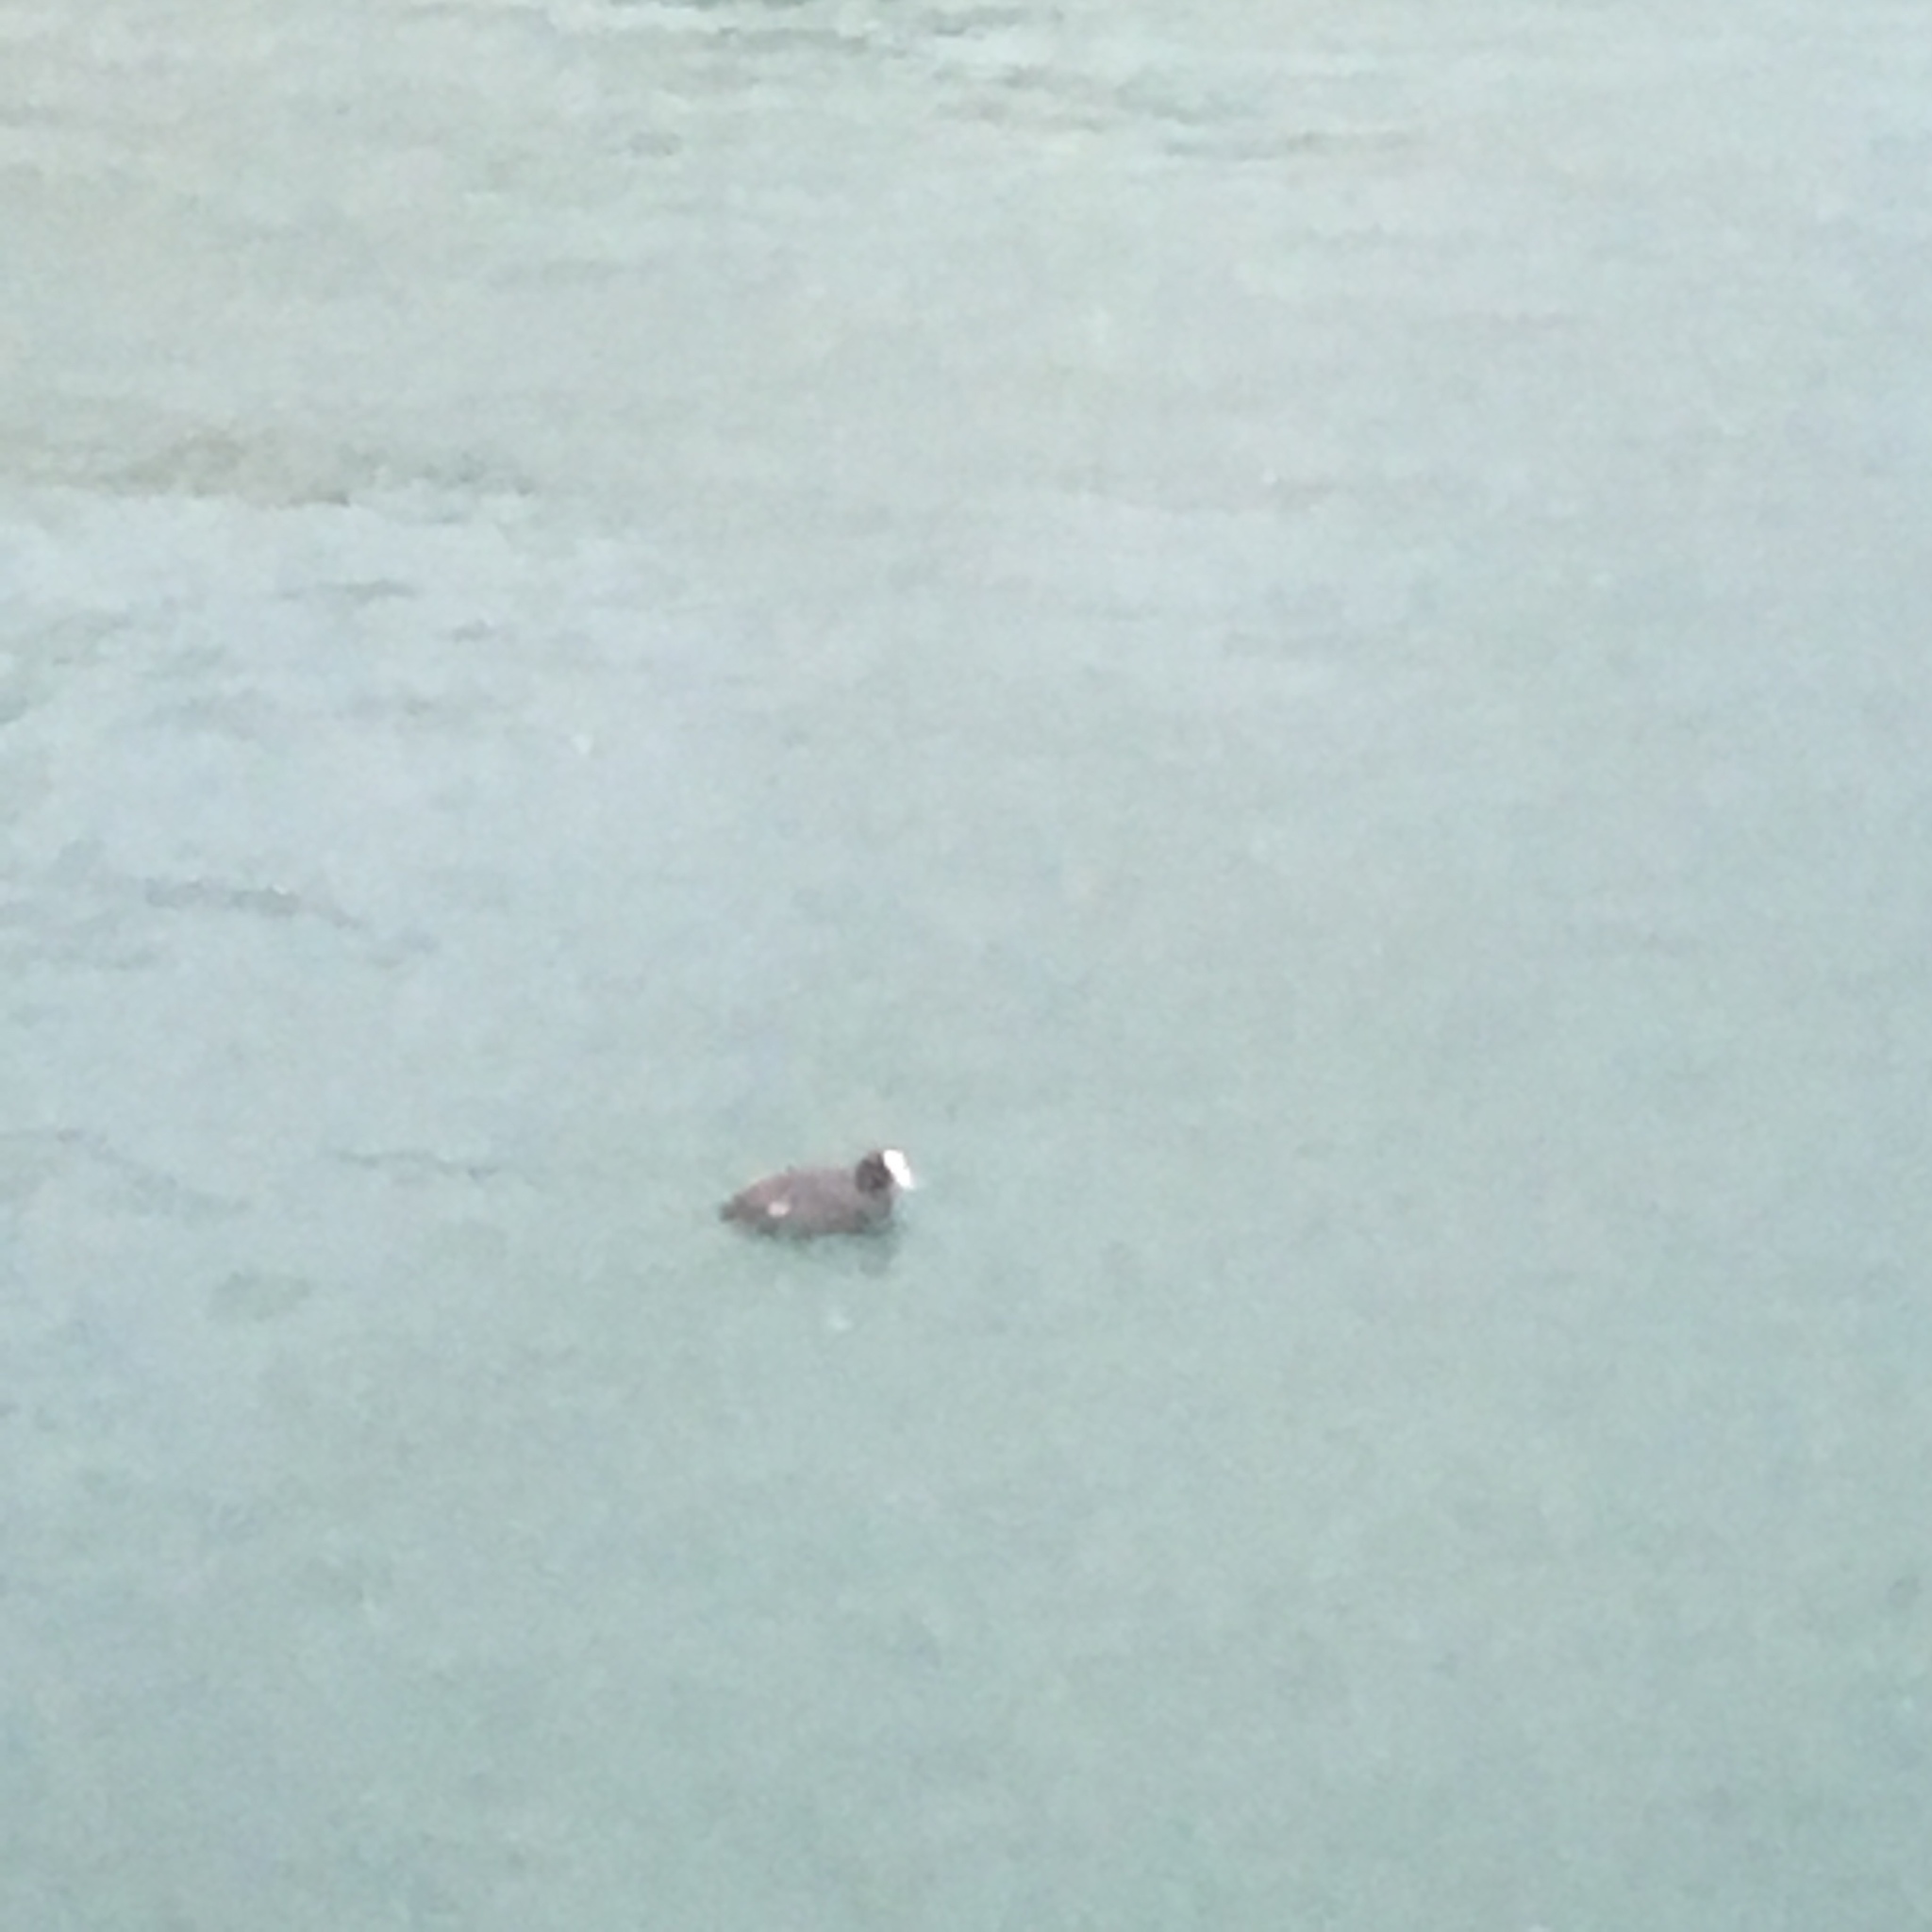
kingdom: Animalia
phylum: Chordata
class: Aves
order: Gruiformes
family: Rallidae
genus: Fulica
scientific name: Fulica atra
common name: Eurasian coot
